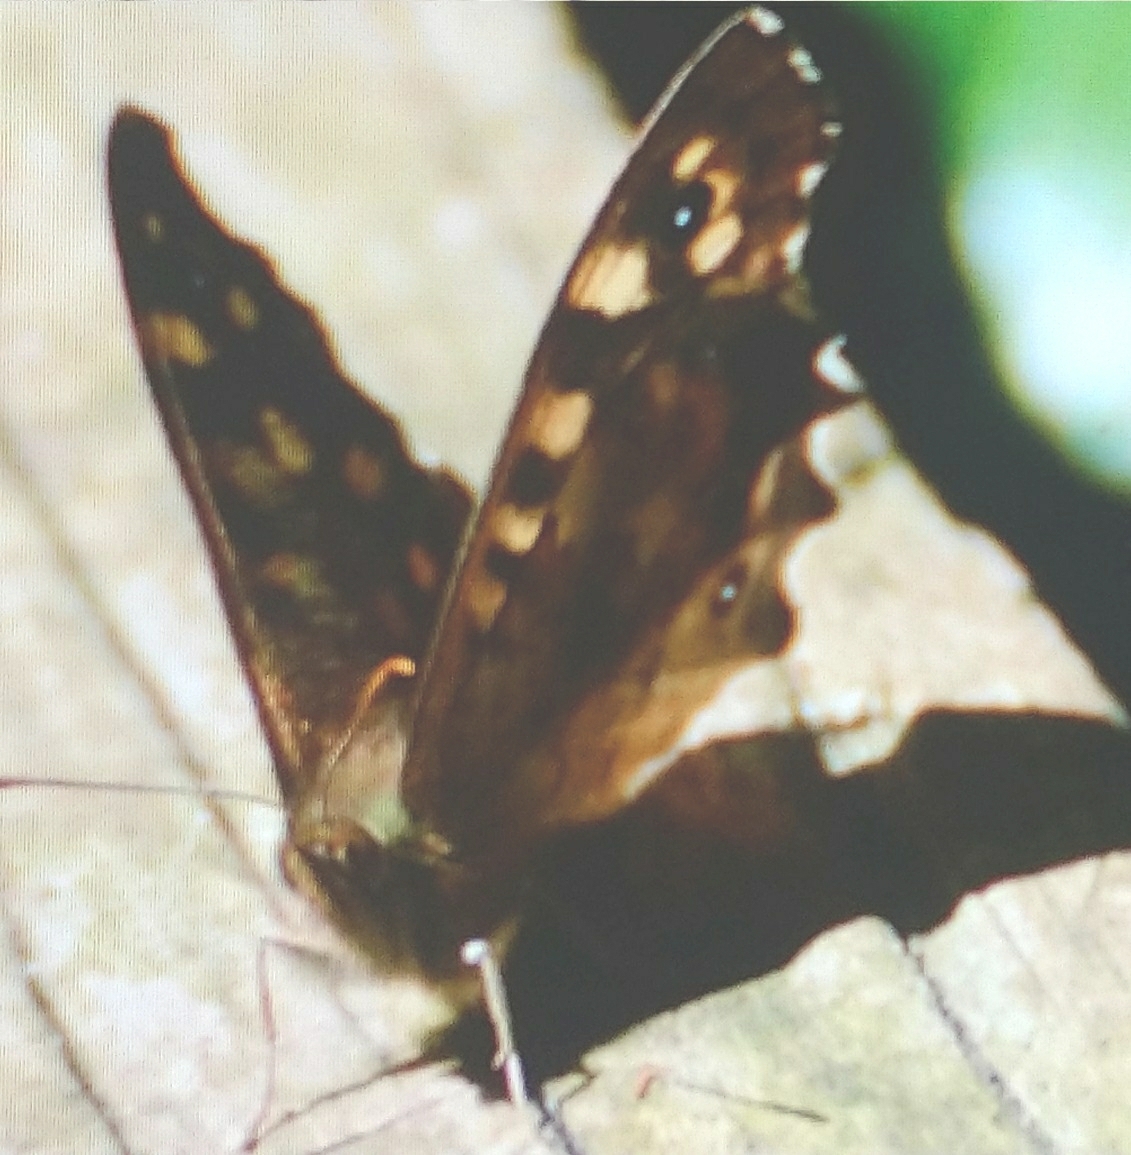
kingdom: Animalia
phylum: Arthropoda
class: Insecta
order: Lepidoptera
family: Nymphalidae
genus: Pararge
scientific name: Pararge aegeria
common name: Speckled wood
